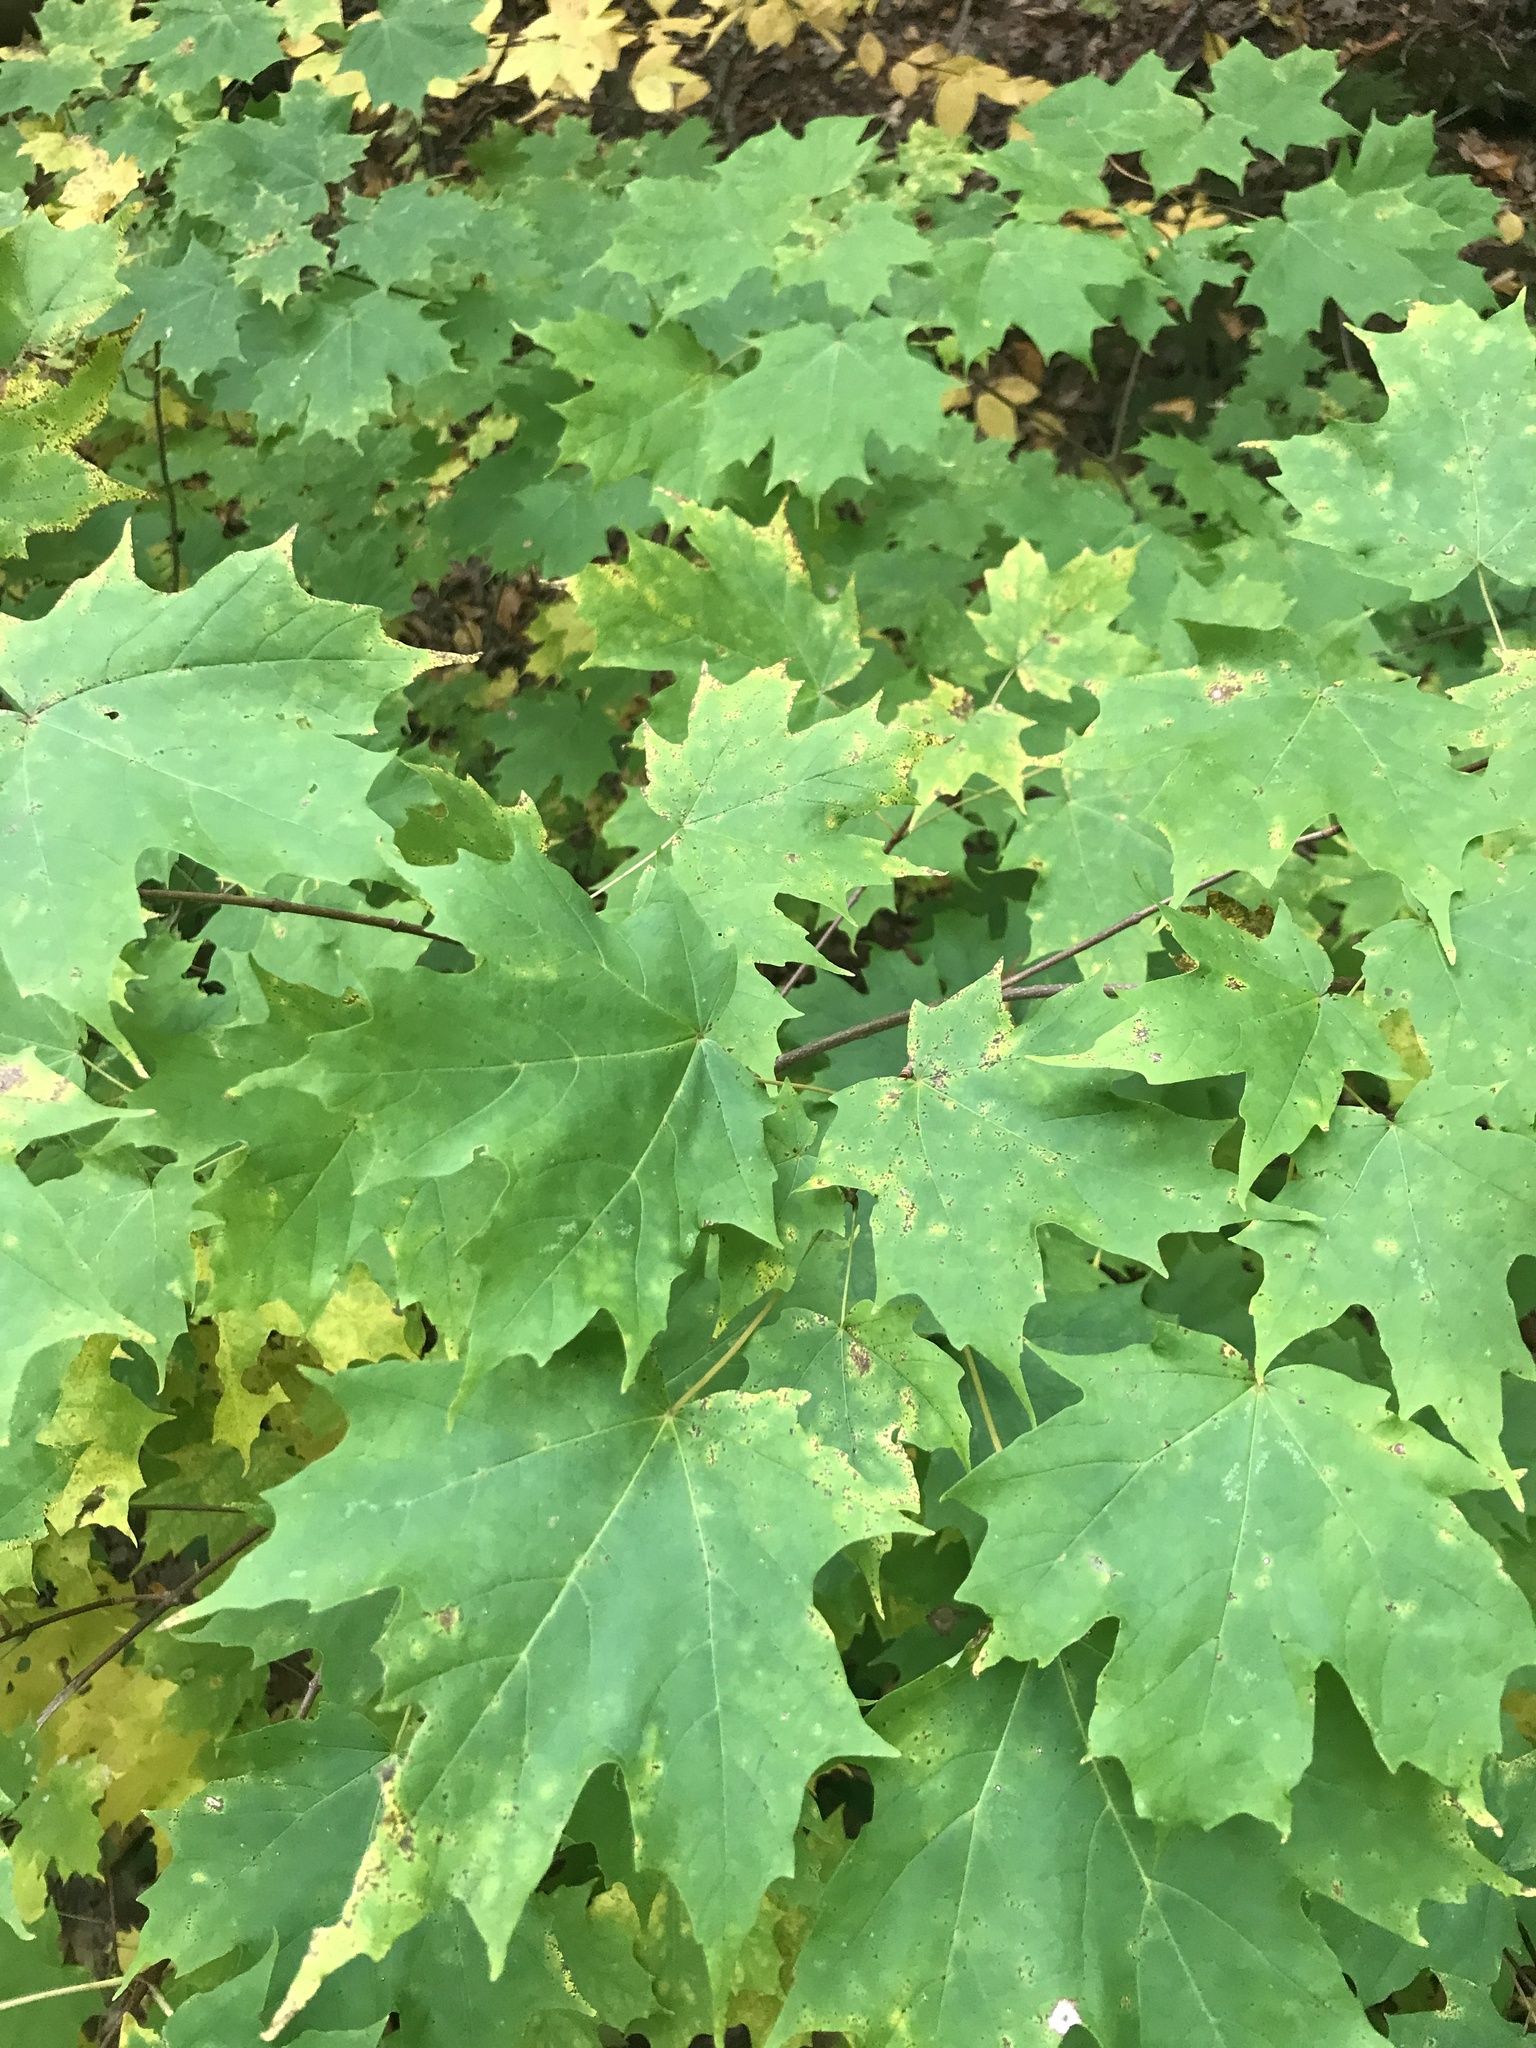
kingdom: Plantae
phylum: Tracheophyta
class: Magnoliopsida
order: Sapindales
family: Sapindaceae
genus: Acer
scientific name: Acer saccharum
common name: Sugar maple
